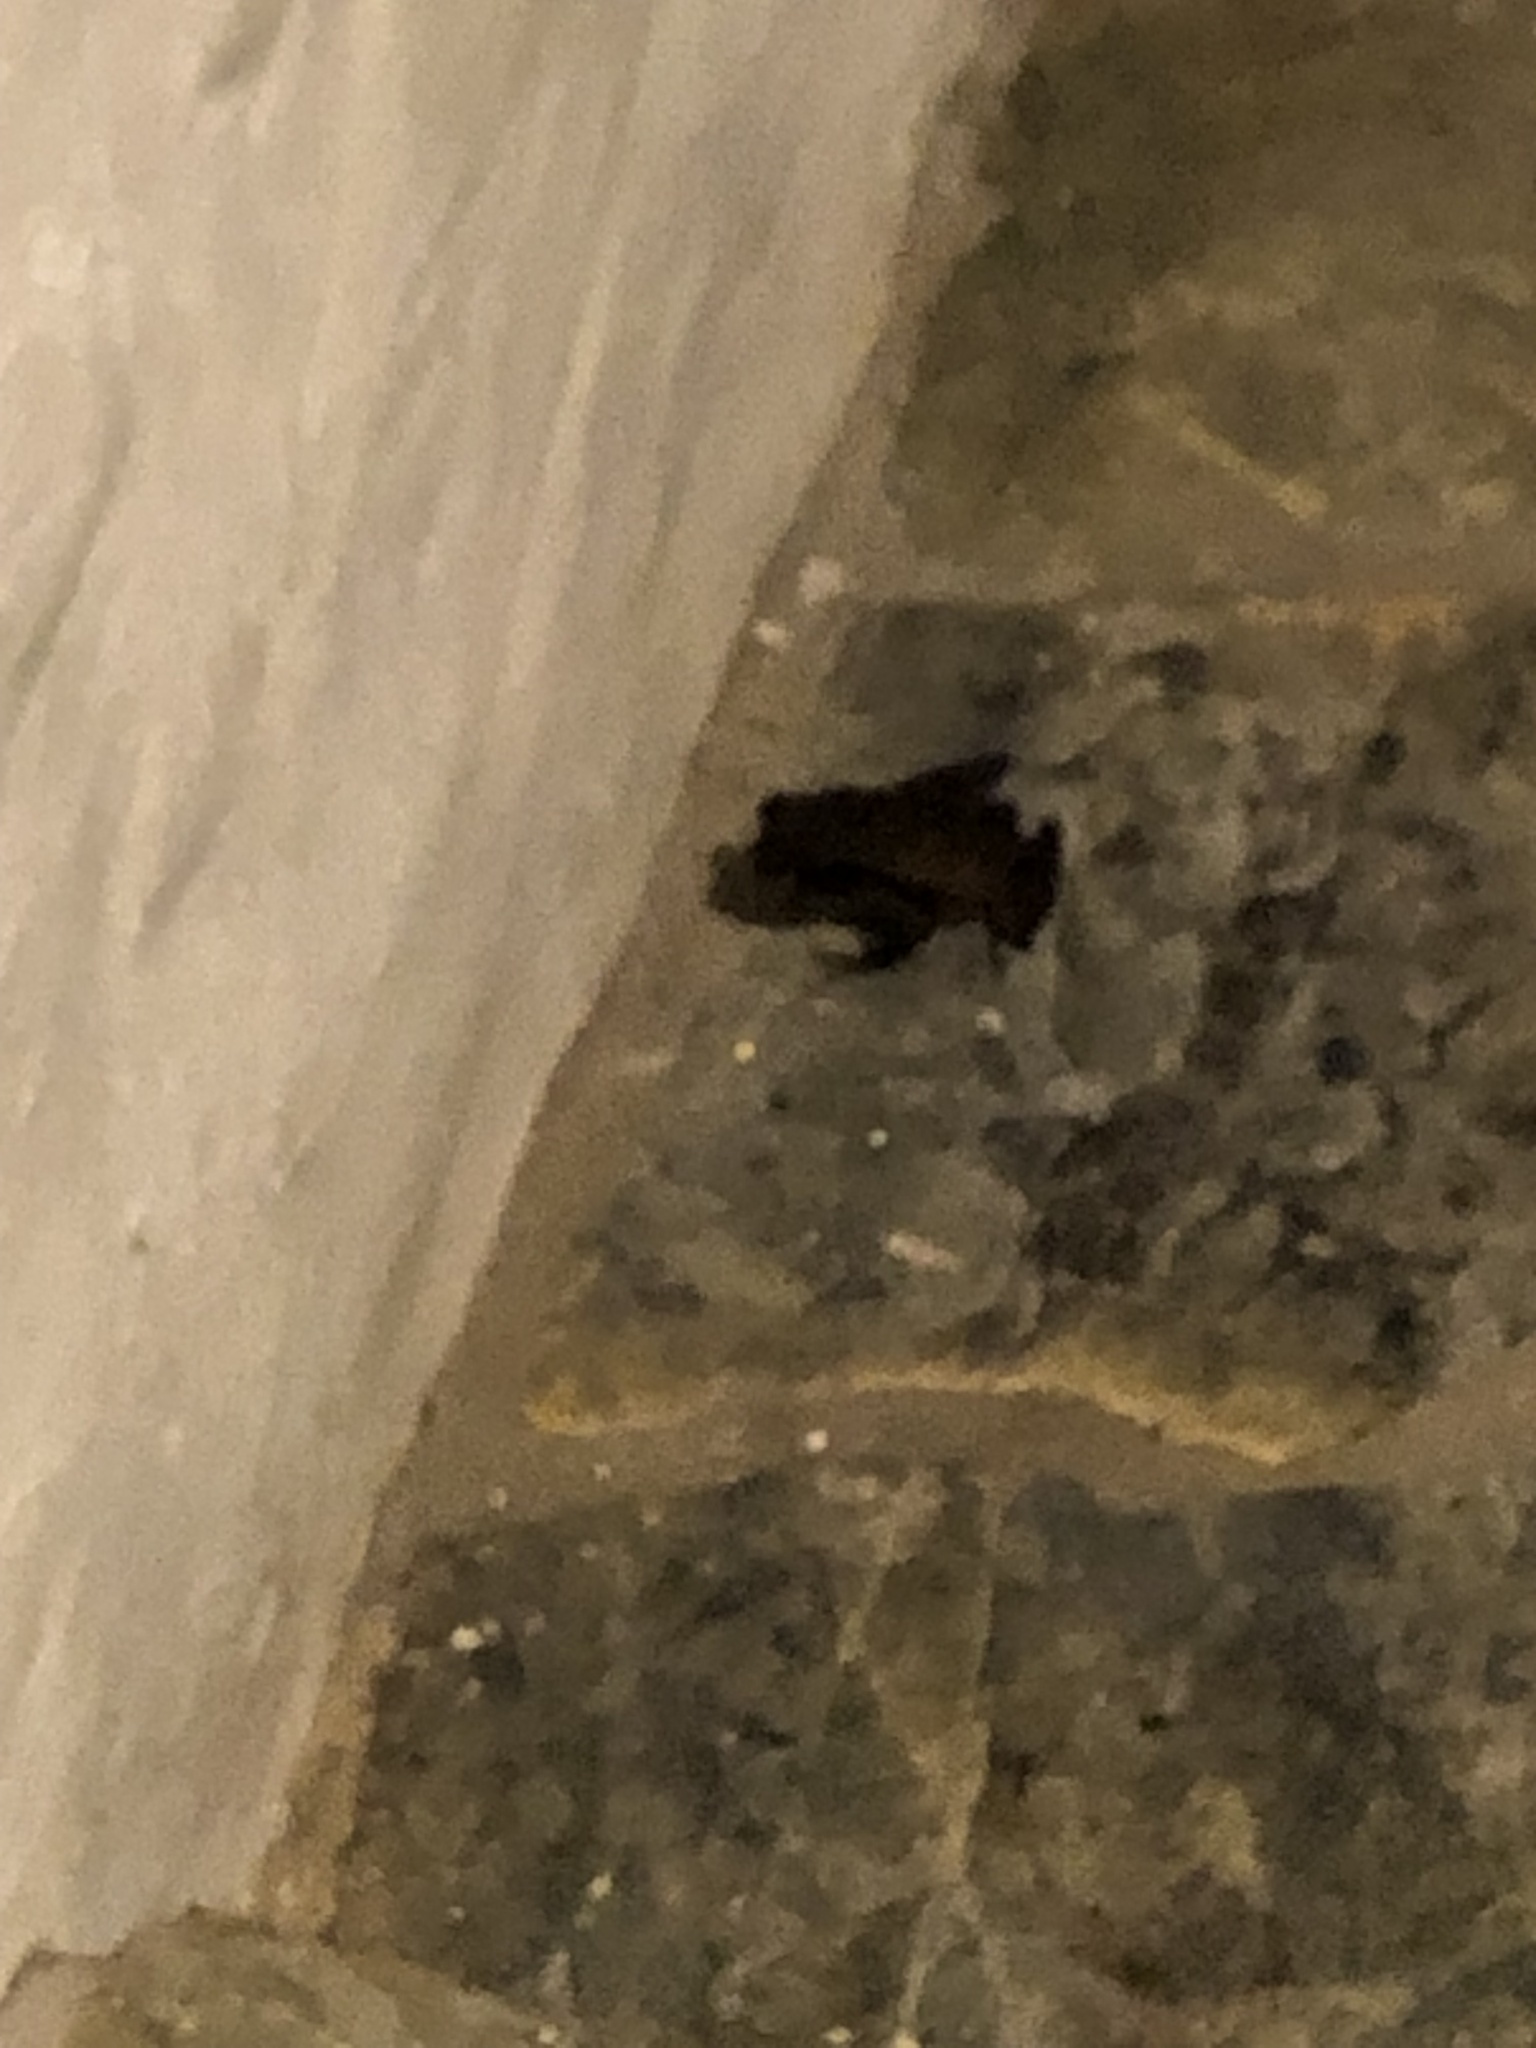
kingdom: Animalia
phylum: Chordata
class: Amphibia
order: Anura
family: Bufonidae
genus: Rhaebo
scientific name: Rhaebo haematiticus
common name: Truando toad
